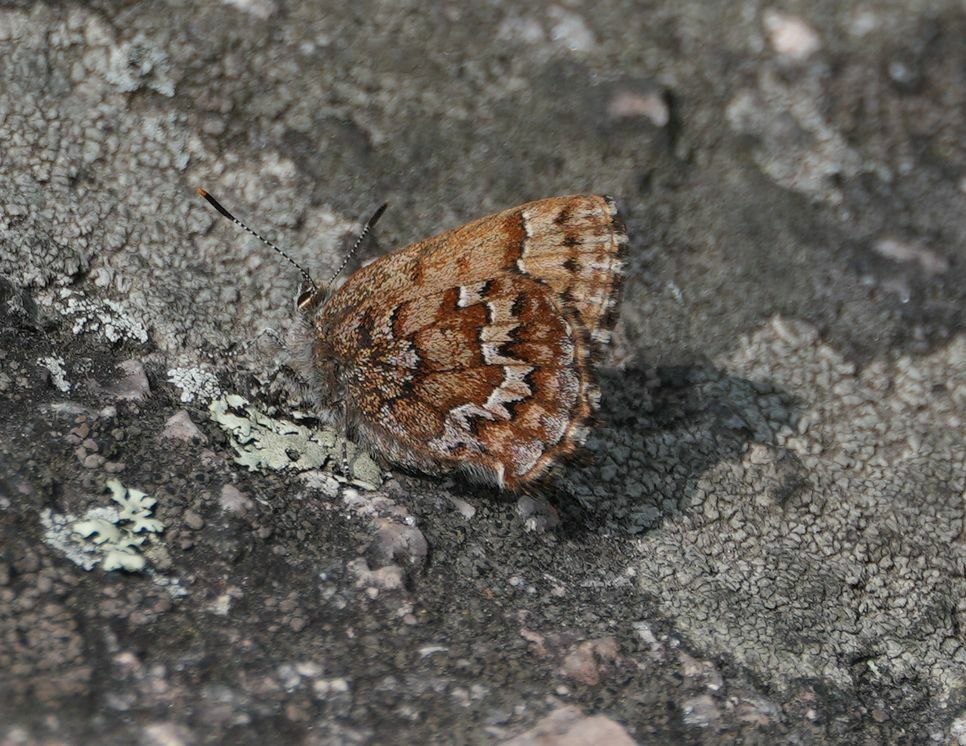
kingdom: Animalia
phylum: Arthropoda
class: Insecta
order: Lepidoptera
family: Lycaenidae
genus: Incisalia
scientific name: Incisalia niphon
